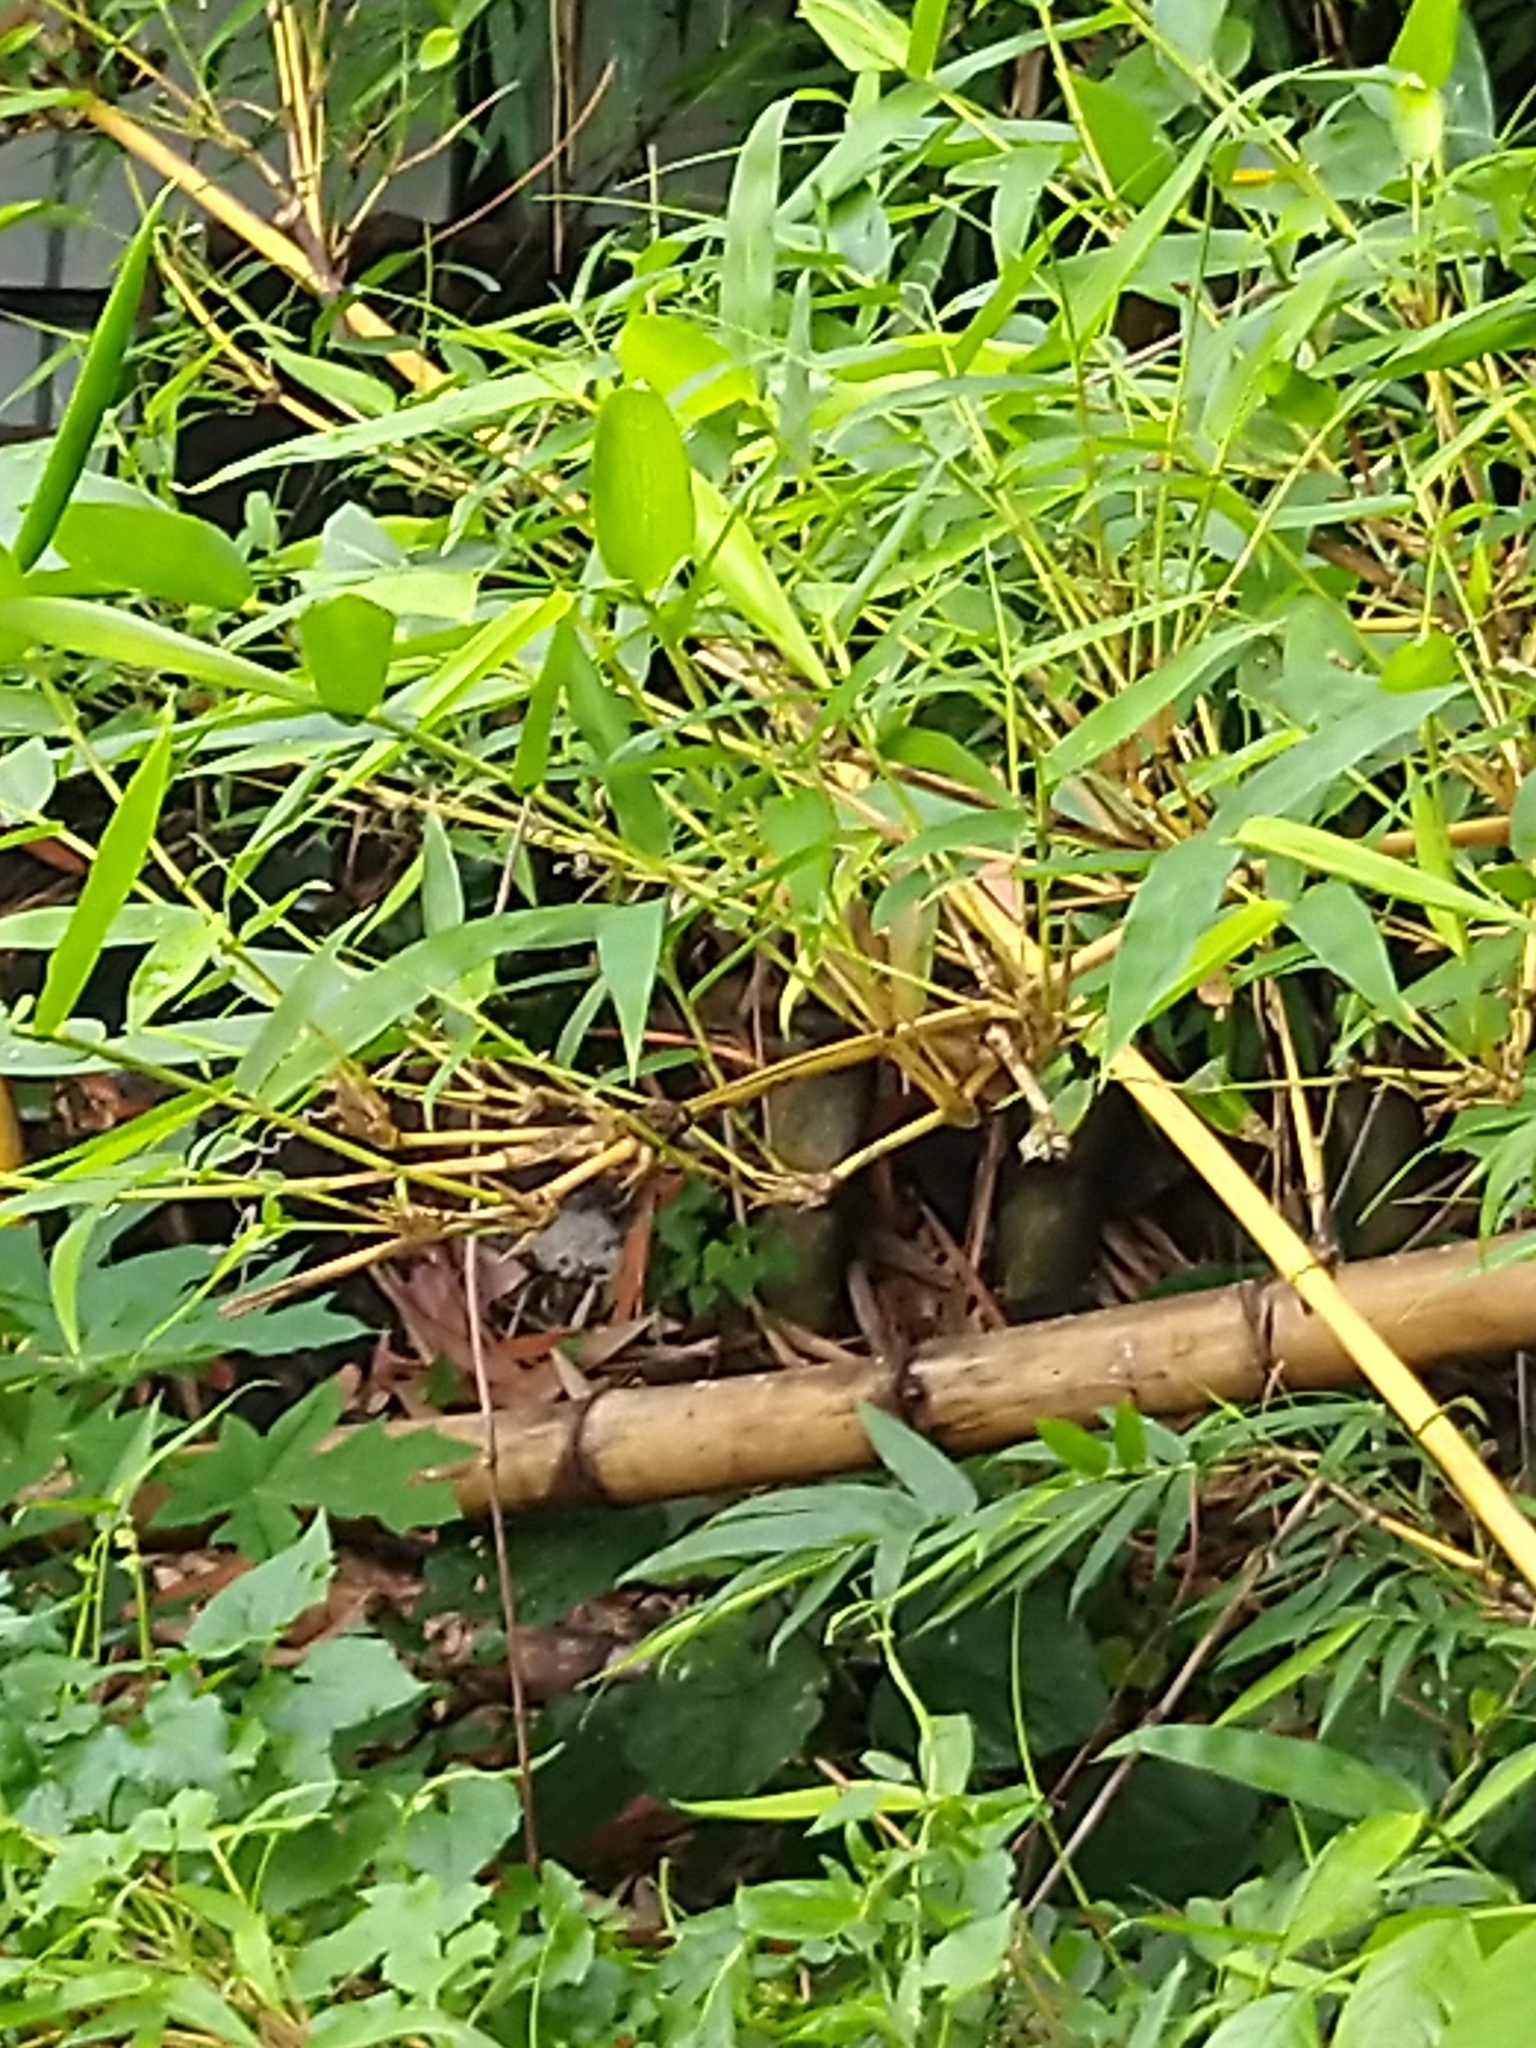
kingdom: Plantae
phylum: Tracheophyta
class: Liliopsida
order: Poales
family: Poaceae
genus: Bambusa
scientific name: Bambusa vulgaris
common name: Common bamboo
